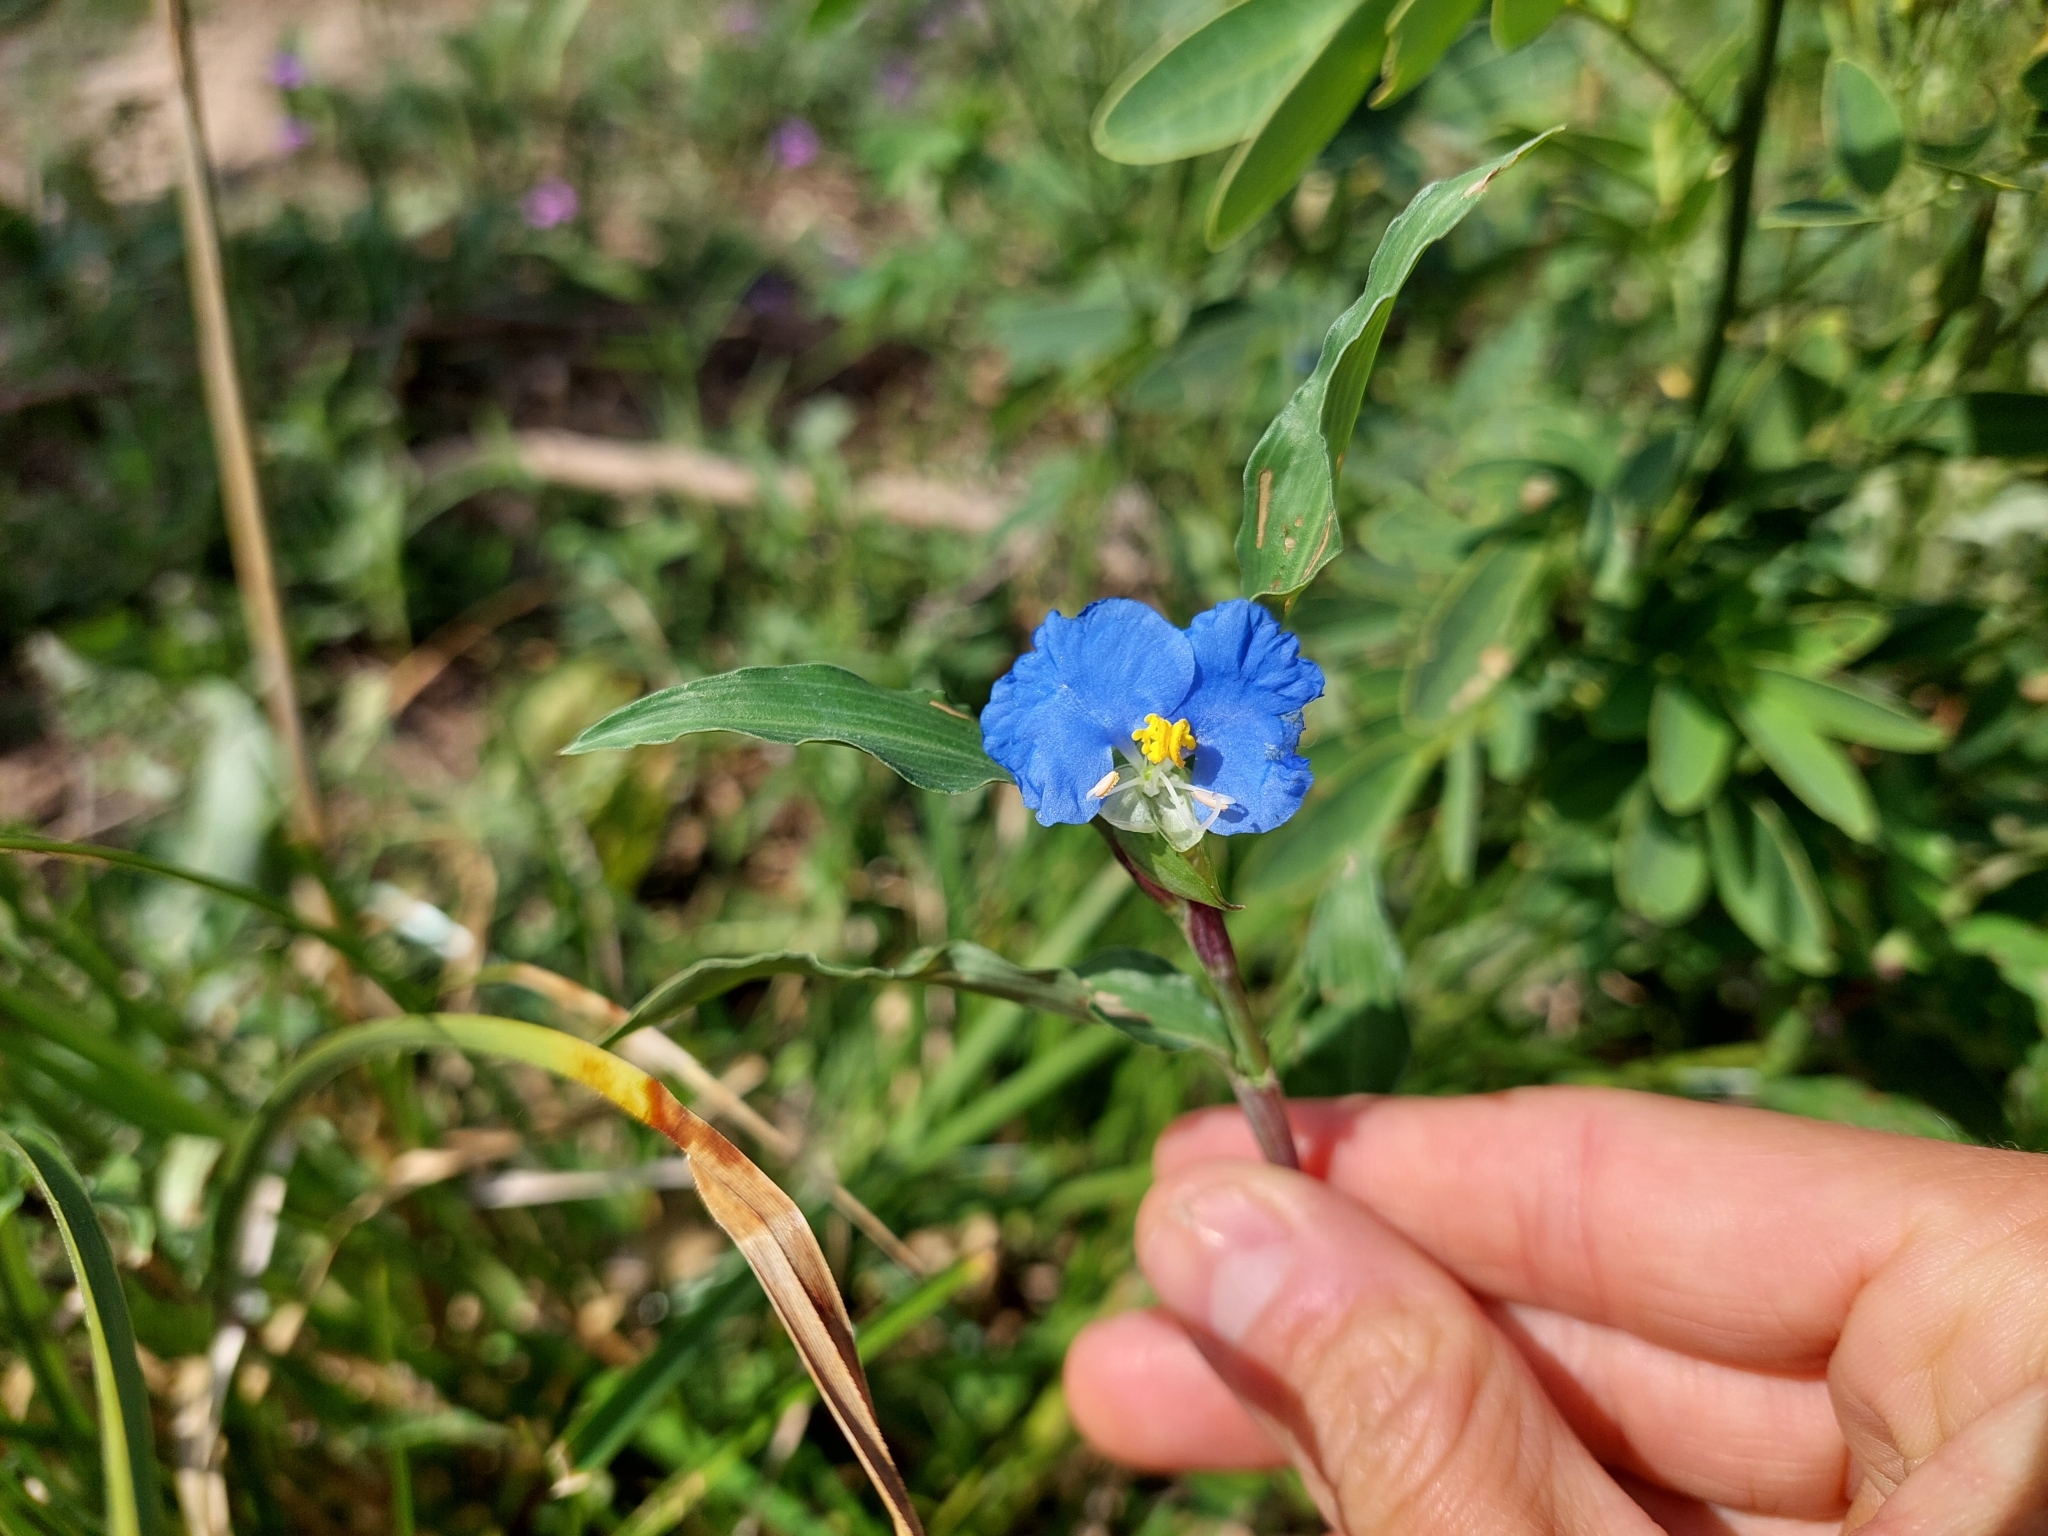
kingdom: Plantae
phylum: Tracheophyta
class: Liliopsida
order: Commelinales
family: Commelinaceae
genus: Commelina
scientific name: Commelina erecta
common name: Blousel blommetjie
